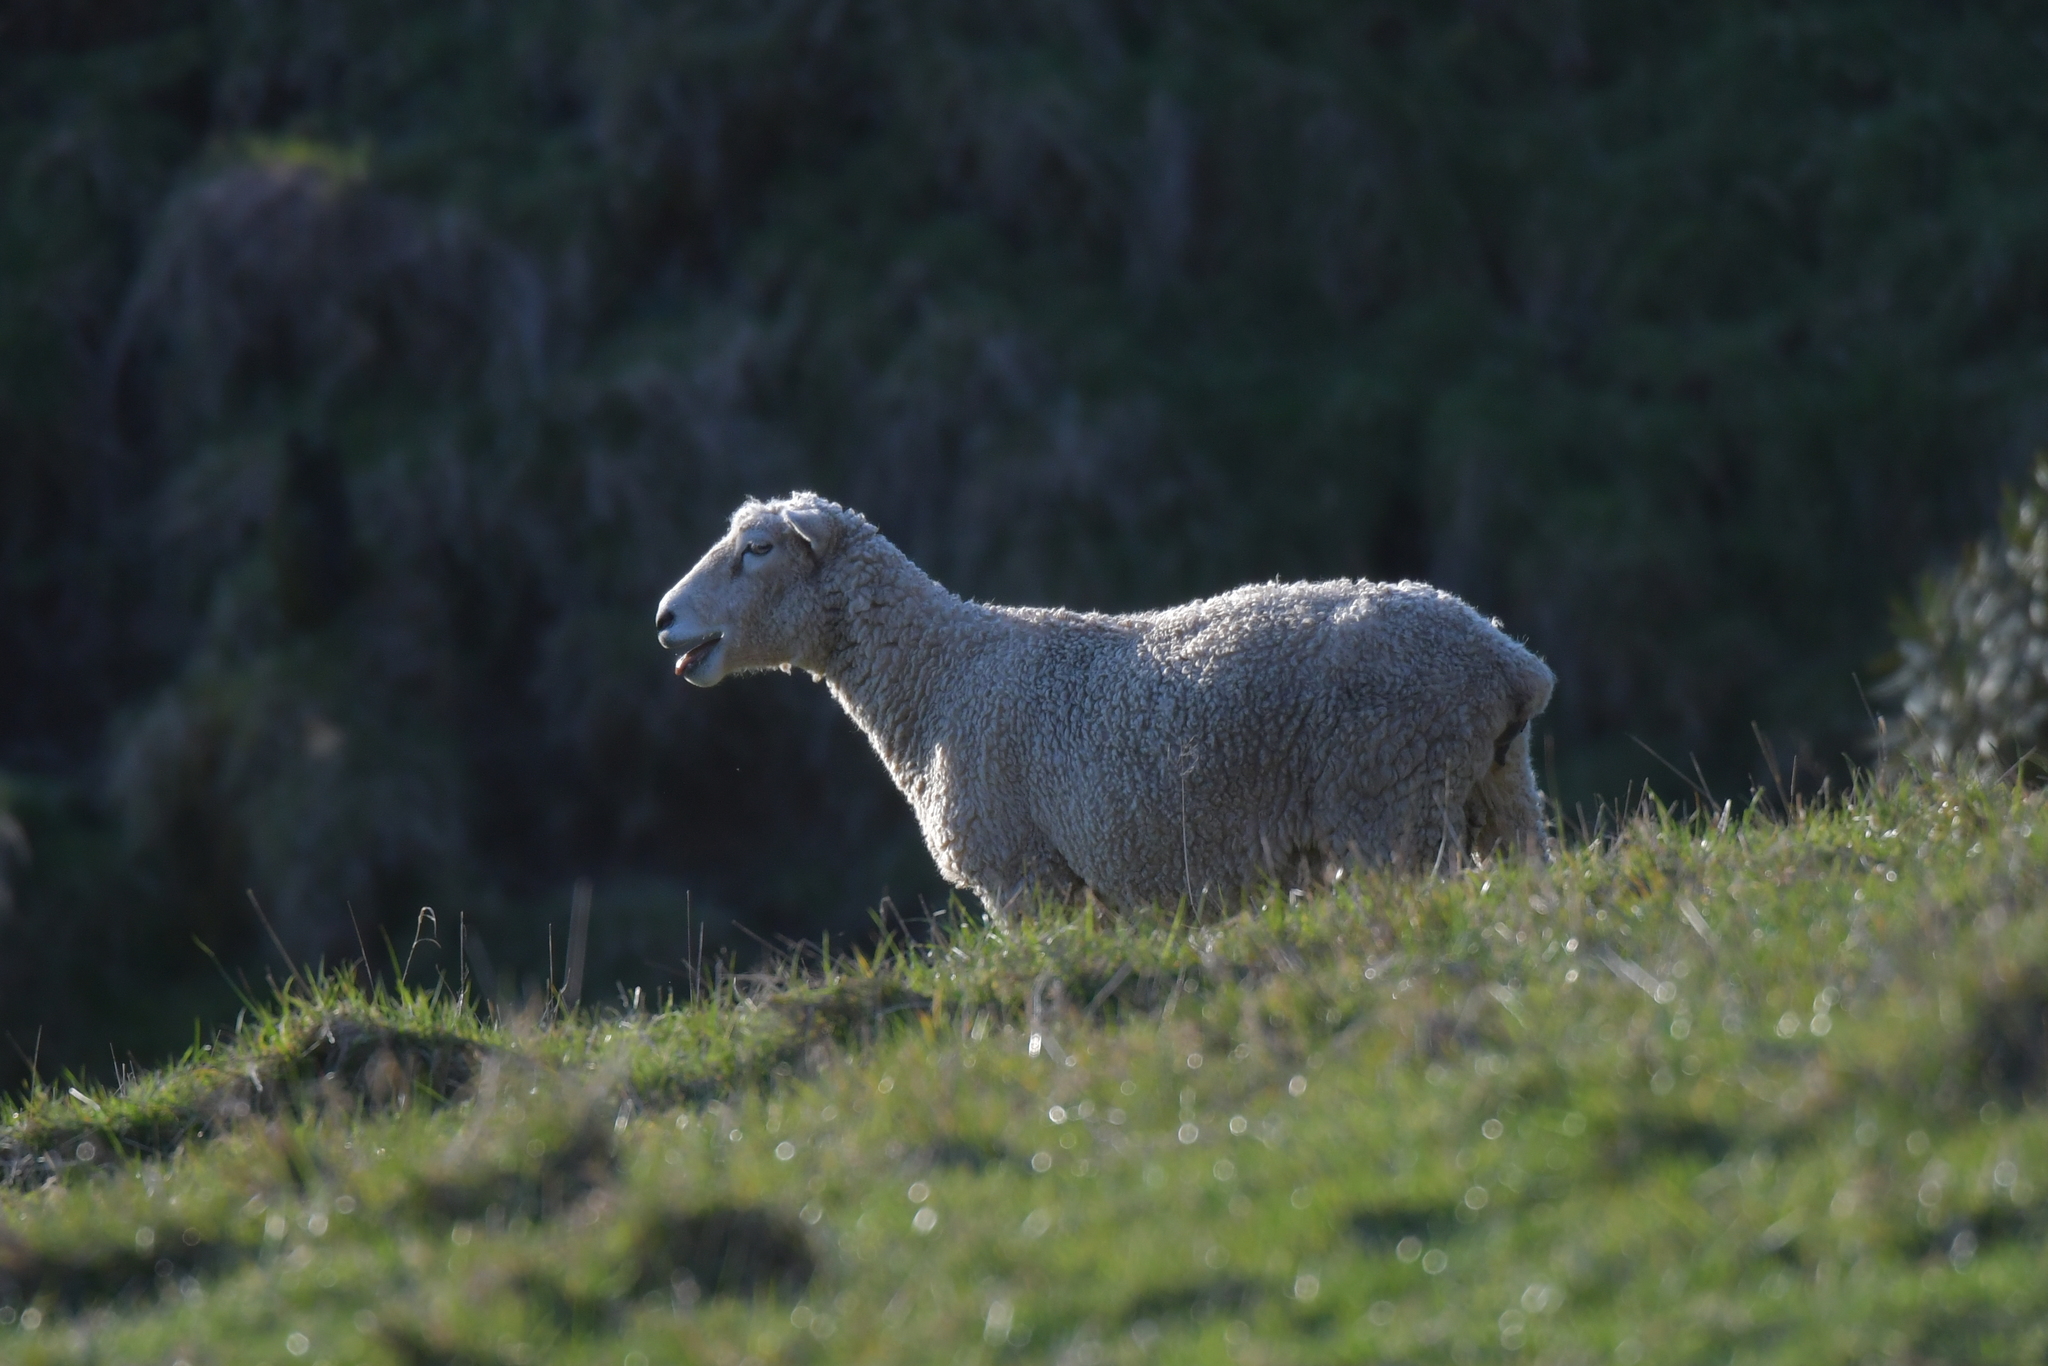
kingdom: Animalia
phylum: Chordata
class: Mammalia
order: Artiodactyla
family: Bovidae
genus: Ovis
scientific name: Ovis aries
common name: Domestic sheep
